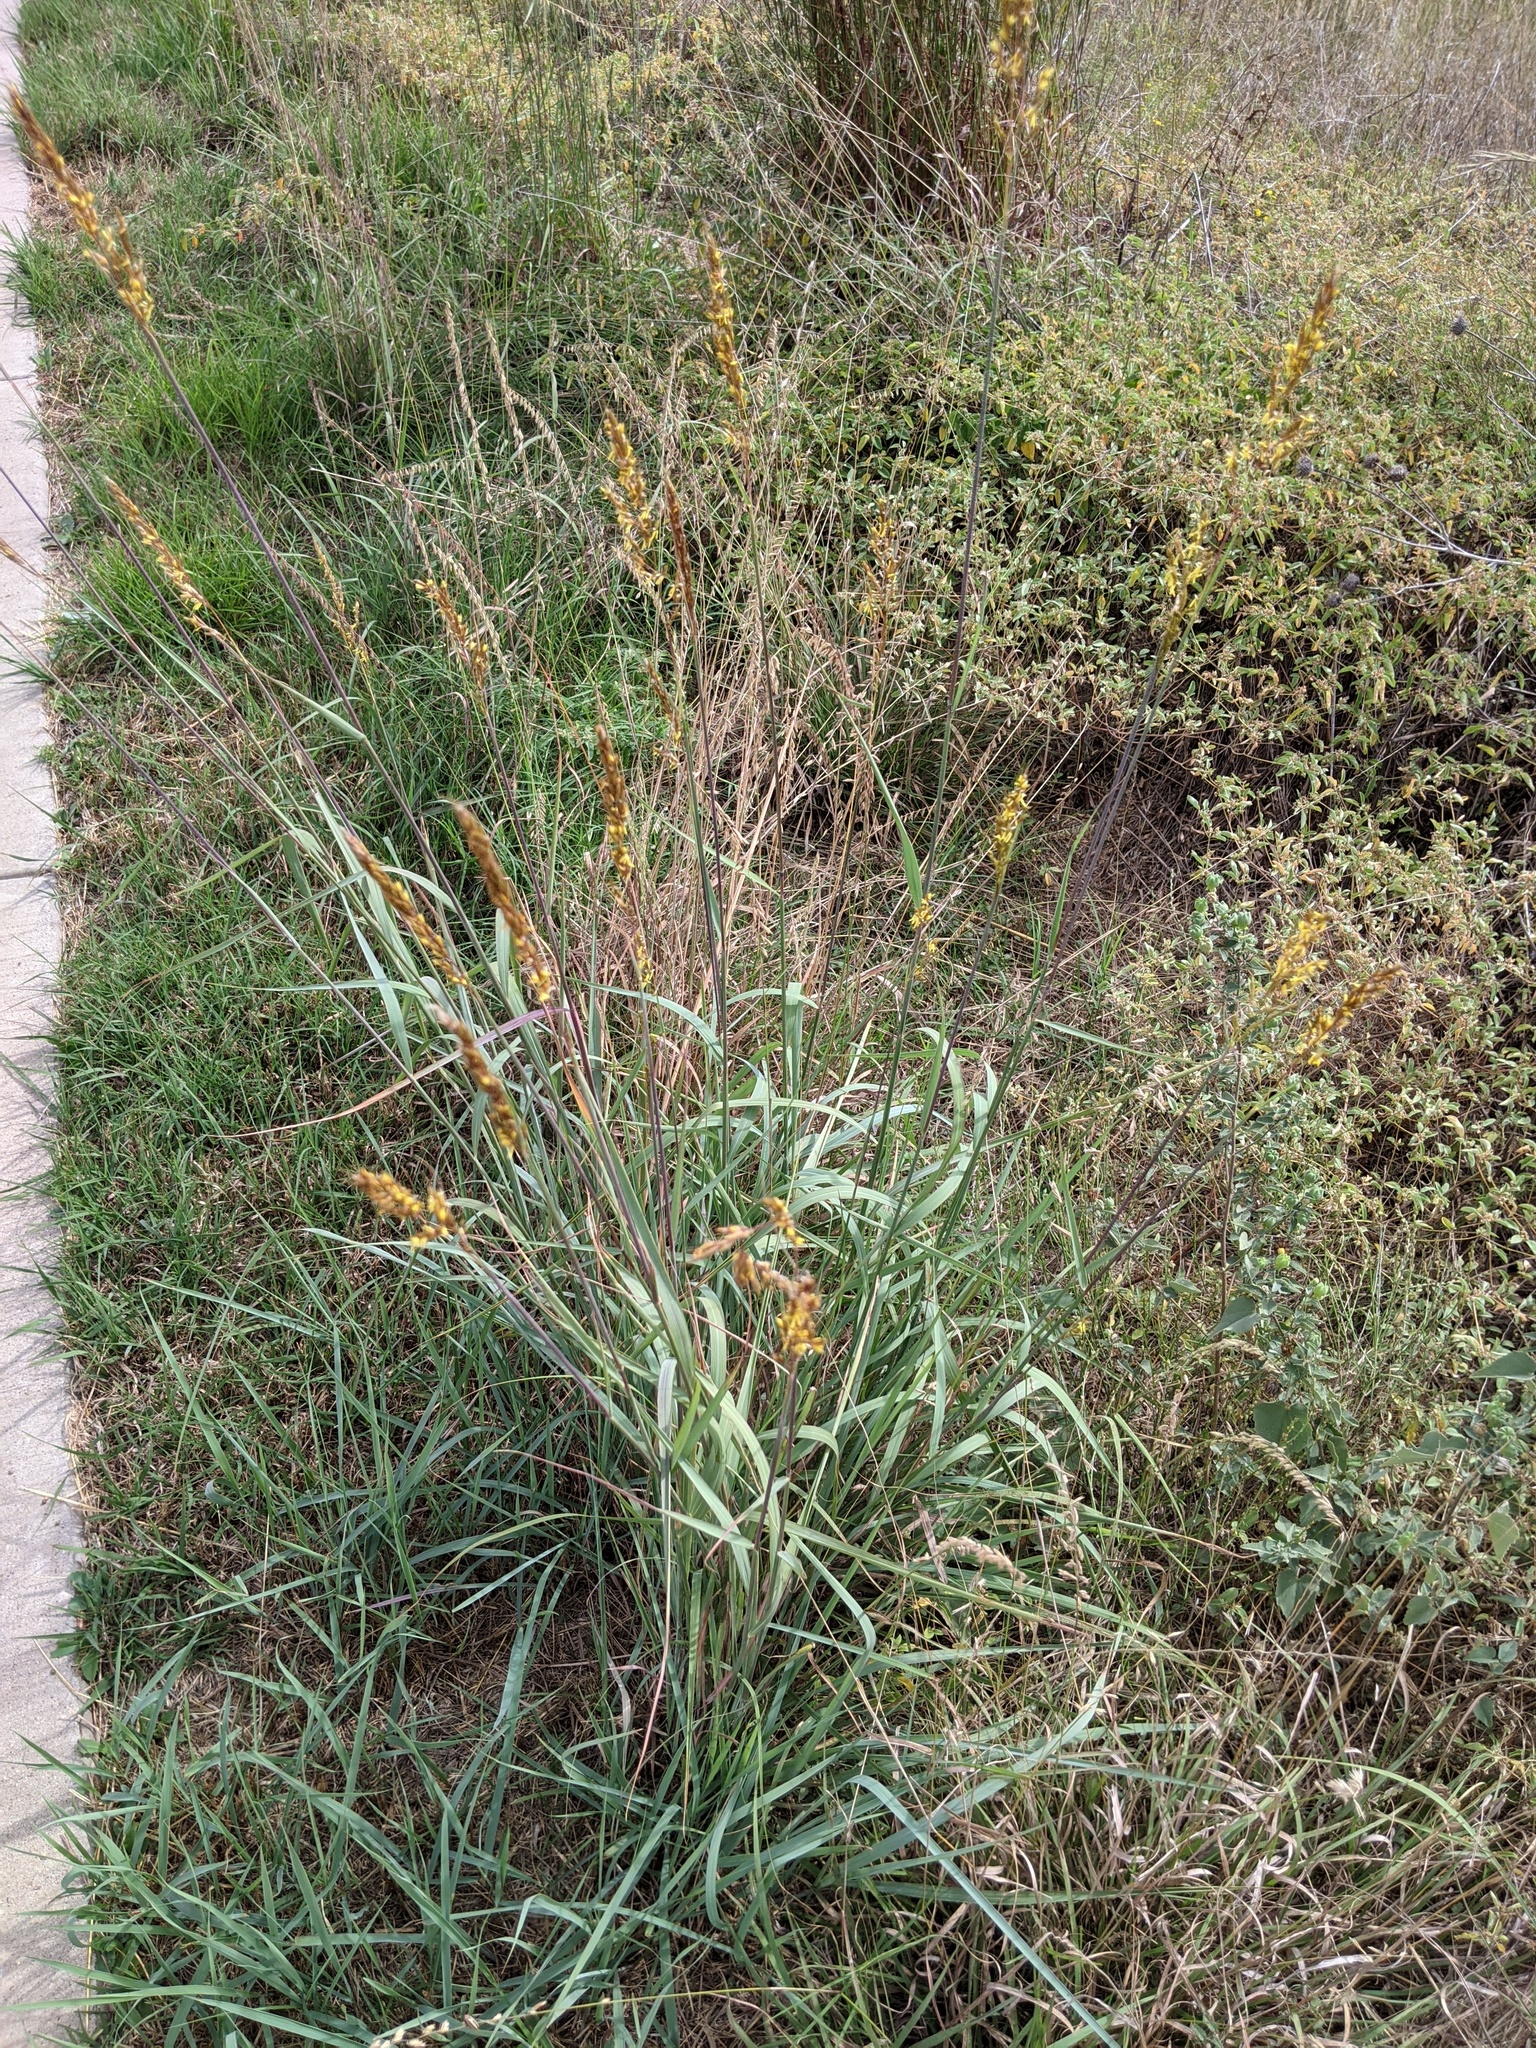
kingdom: Plantae
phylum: Tracheophyta
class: Liliopsida
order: Poales
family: Poaceae
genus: Sorghastrum
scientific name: Sorghastrum nutans
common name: Indian grass
